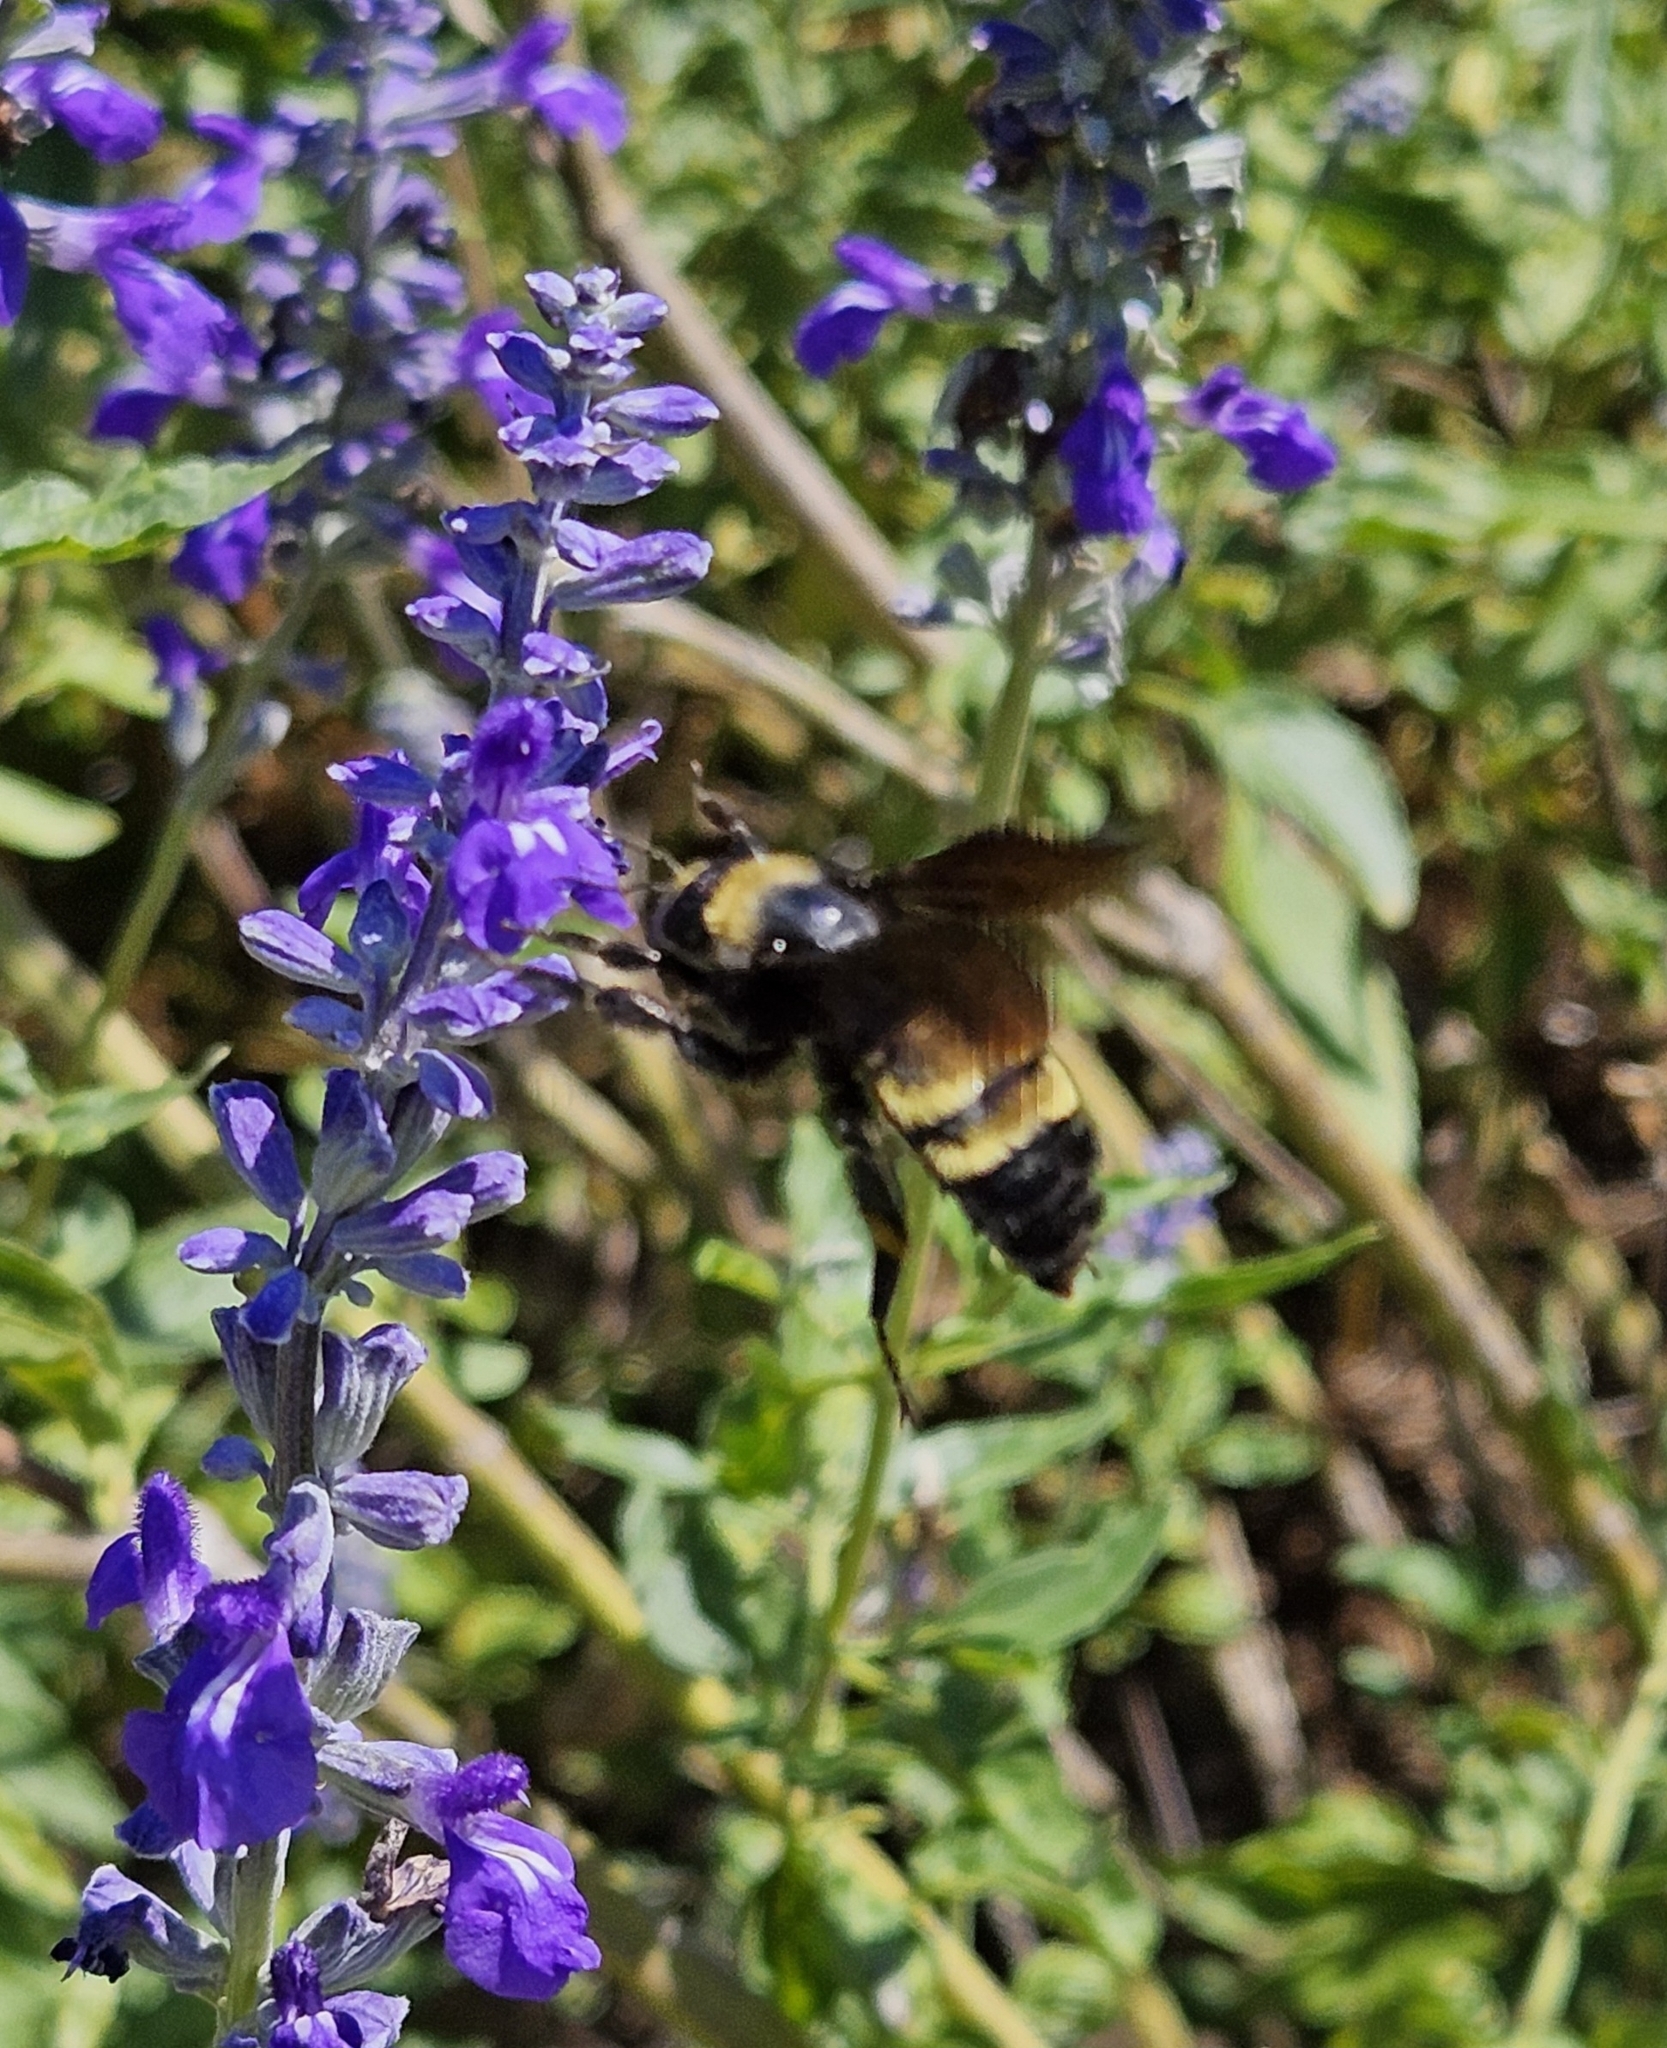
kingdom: Animalia
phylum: Arthropoda
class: Insecta
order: Hymenoptera
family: Apidae
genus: Bombus
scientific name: Bombus pensylvanicus
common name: Bumble bee
